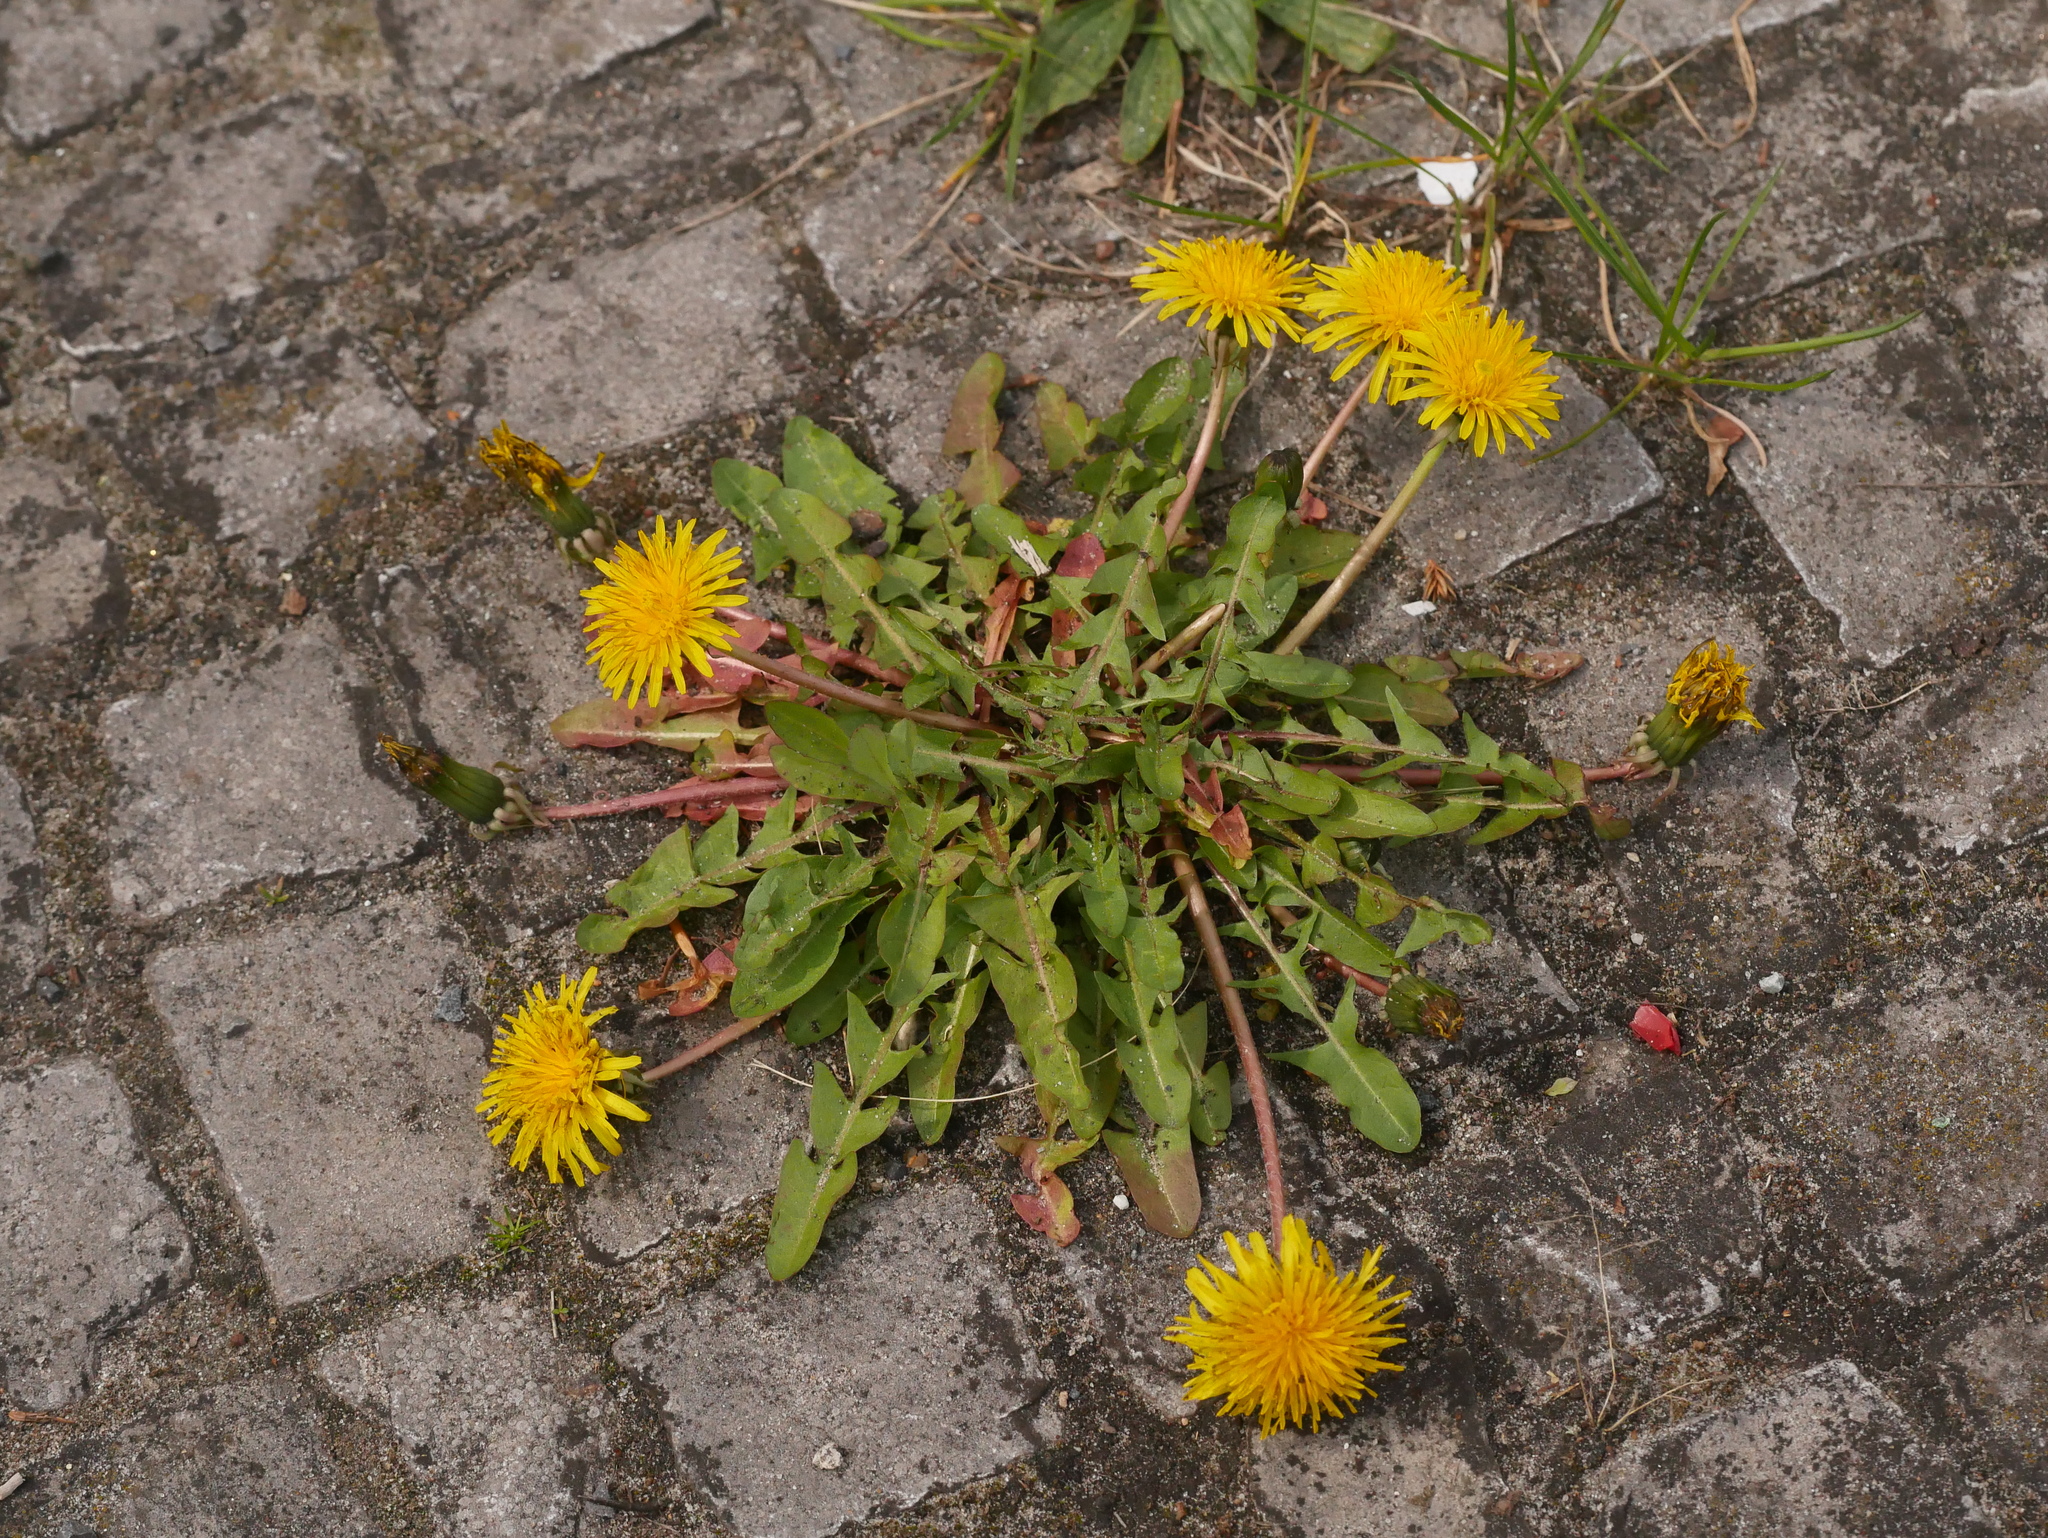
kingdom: Plantae
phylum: Tracheophyta
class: Magnoliopsida
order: Asterales
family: Asteraceae
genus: Taraxacum
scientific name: Taraxacum officinale
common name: Common dandelion
